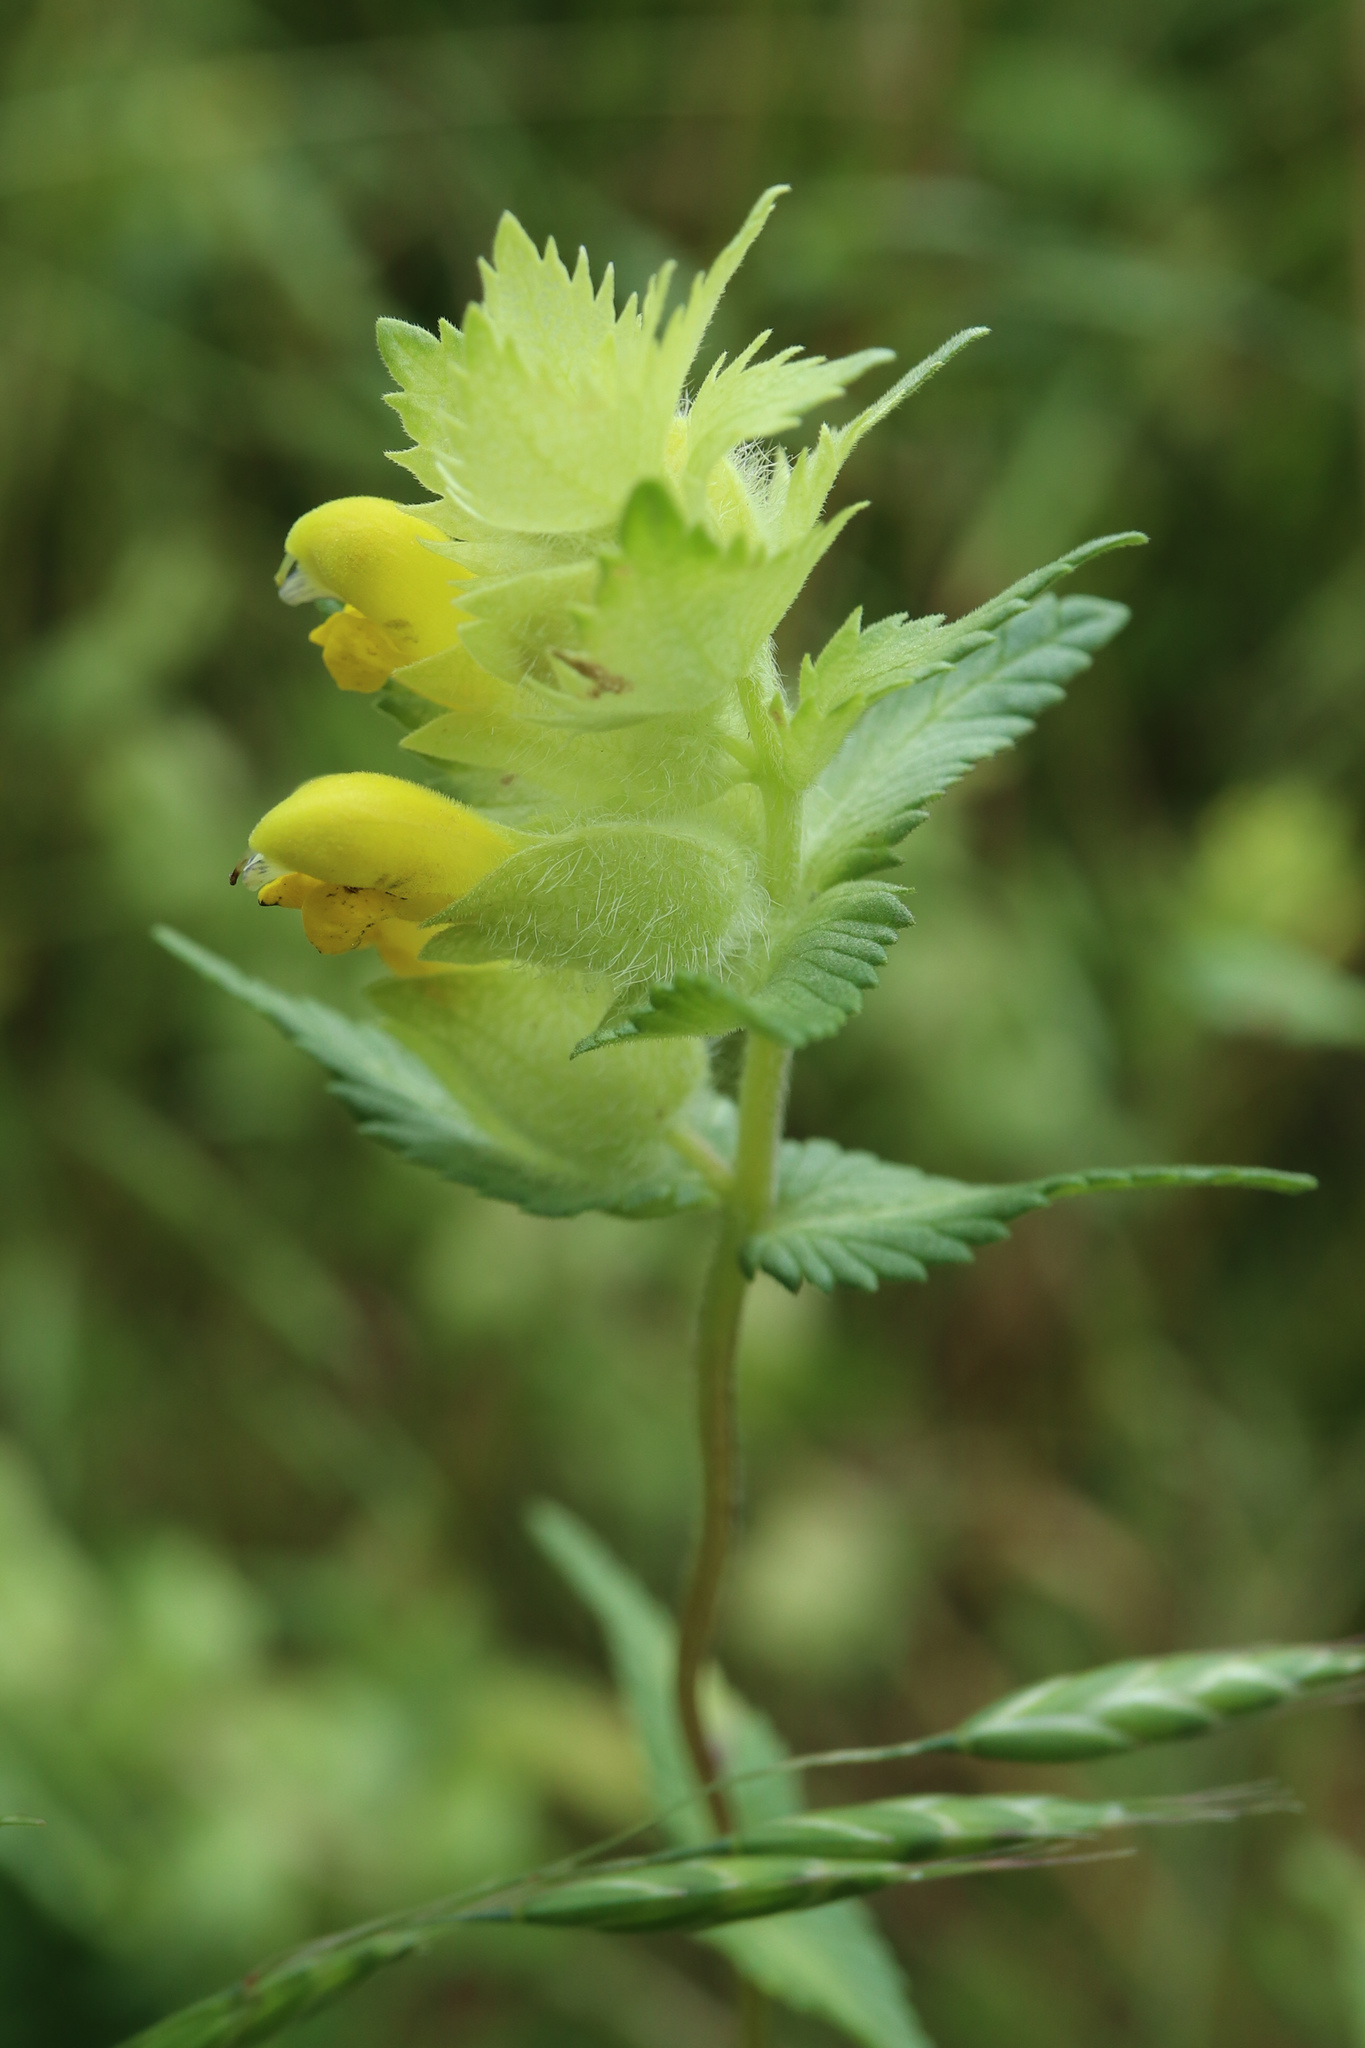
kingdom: Plantae
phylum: Tracheophyta
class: Magnoliopsida
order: Lamiales
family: Orobanchaceae
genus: Rhinanthus
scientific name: Rhinanthus alectorolophus
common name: Greater yellow-rattle
